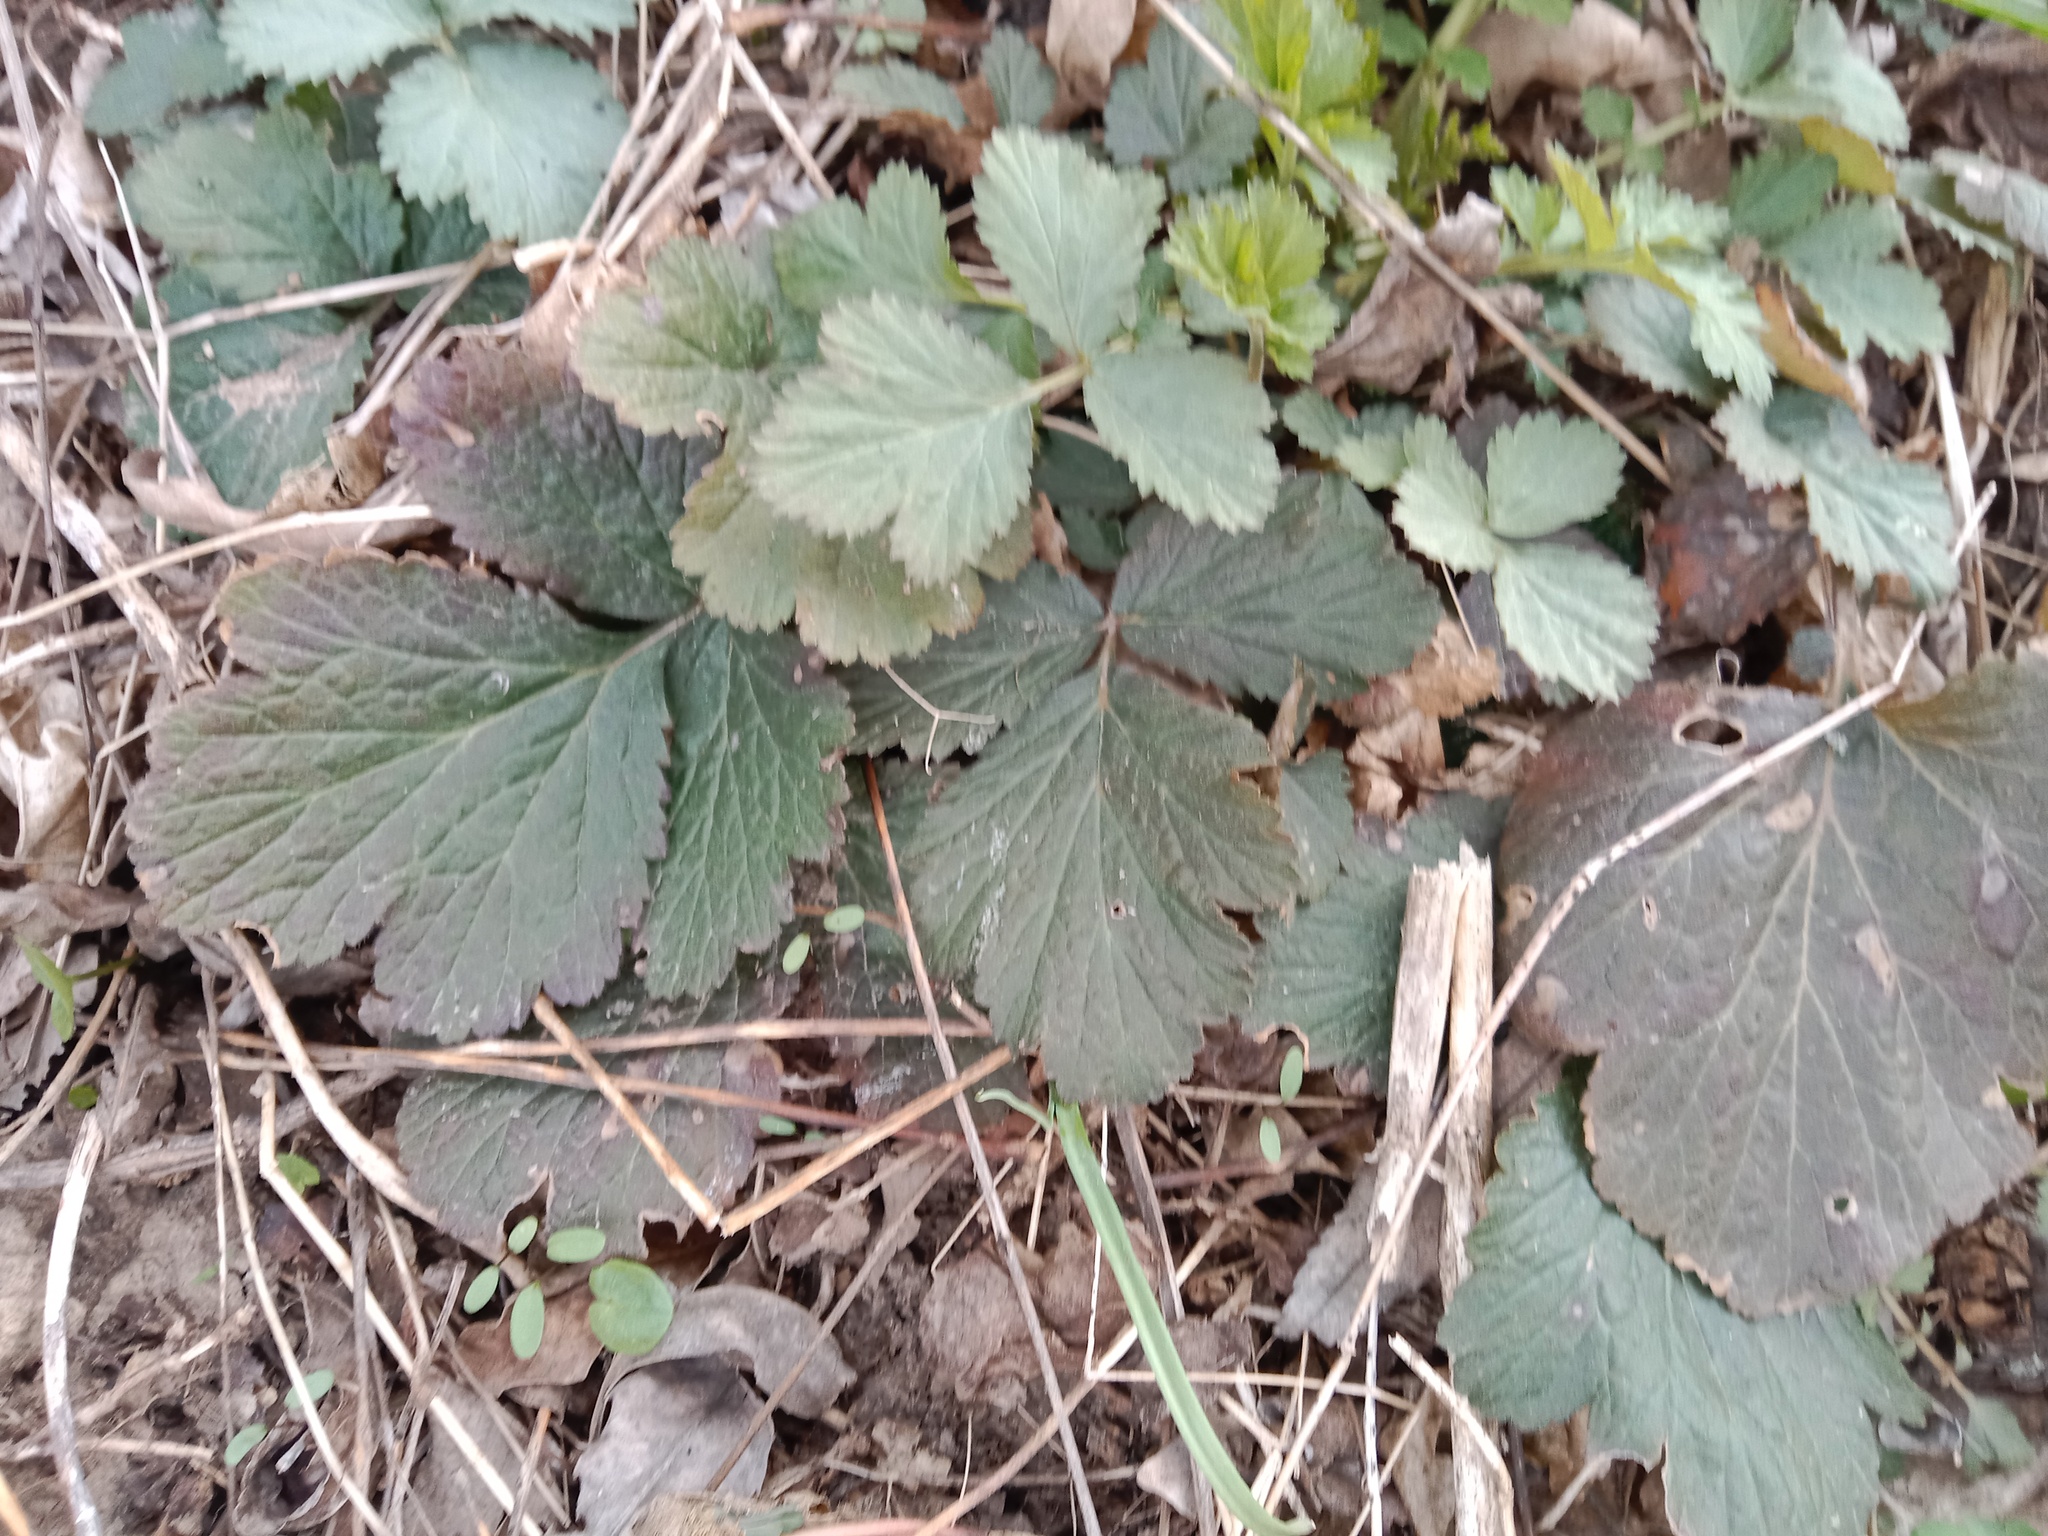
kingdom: Plantae
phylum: Tracheophyta
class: Magnoliopsida
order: Rosales
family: Rosaceae
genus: Geum
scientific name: Geum urbanum
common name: Wood avens
